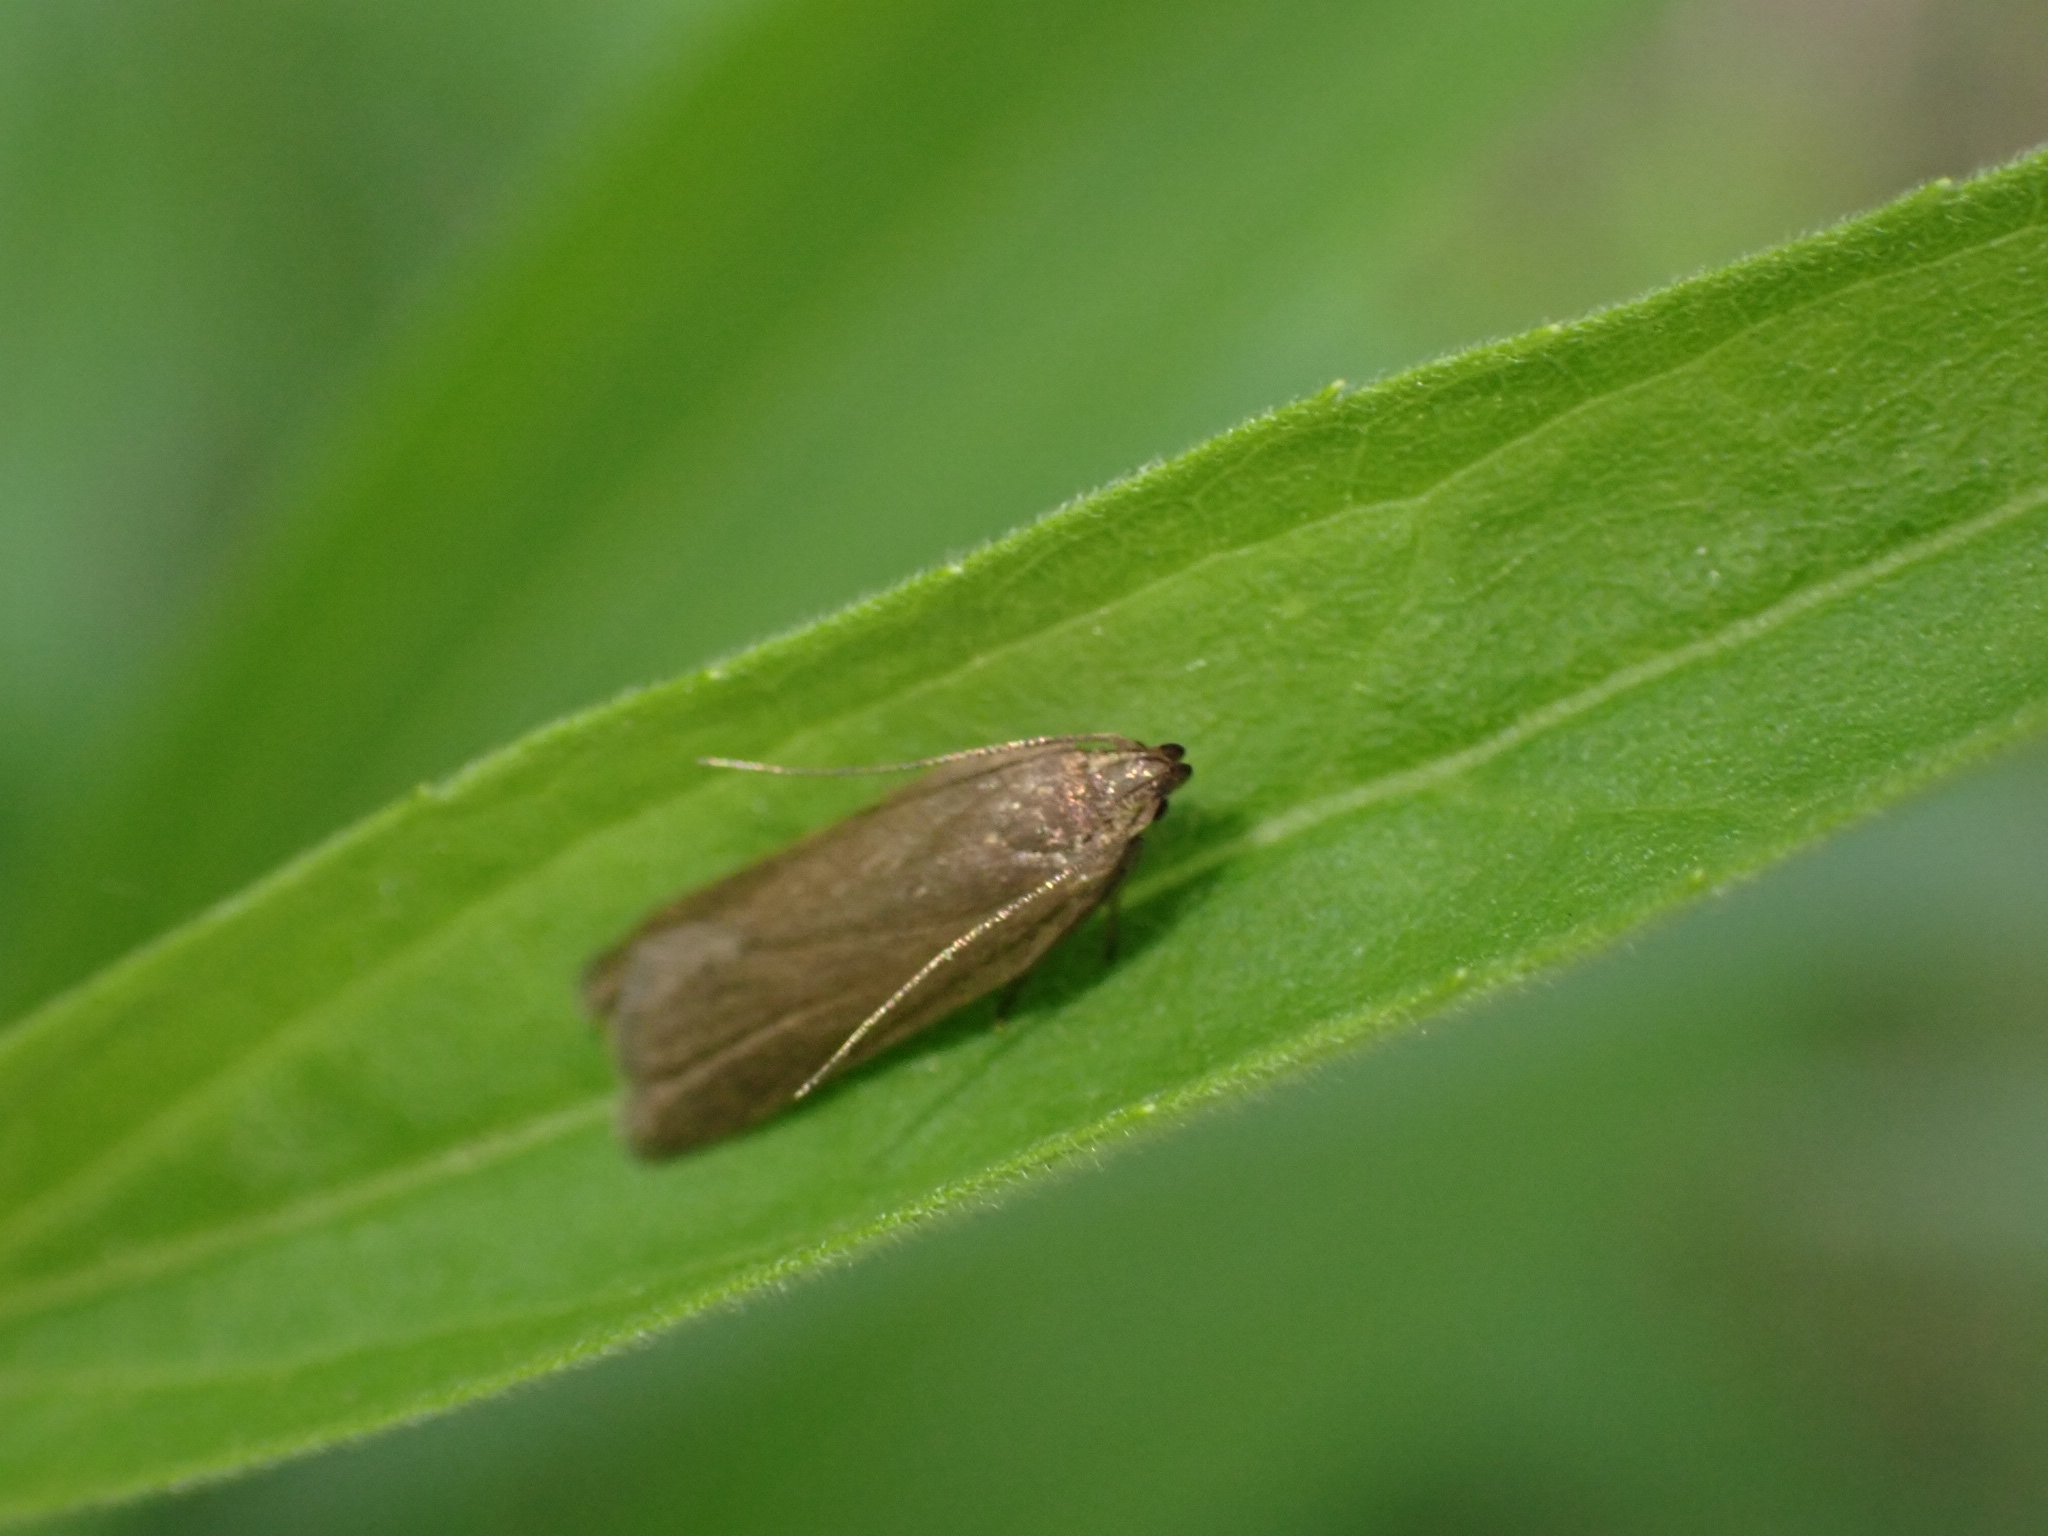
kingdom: Animalia
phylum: Arthropoda
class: Insecta
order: Lepidoptera
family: Gelechiidae
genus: Acompsia
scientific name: Acompsia cinerella
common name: Ash-coloured sober
